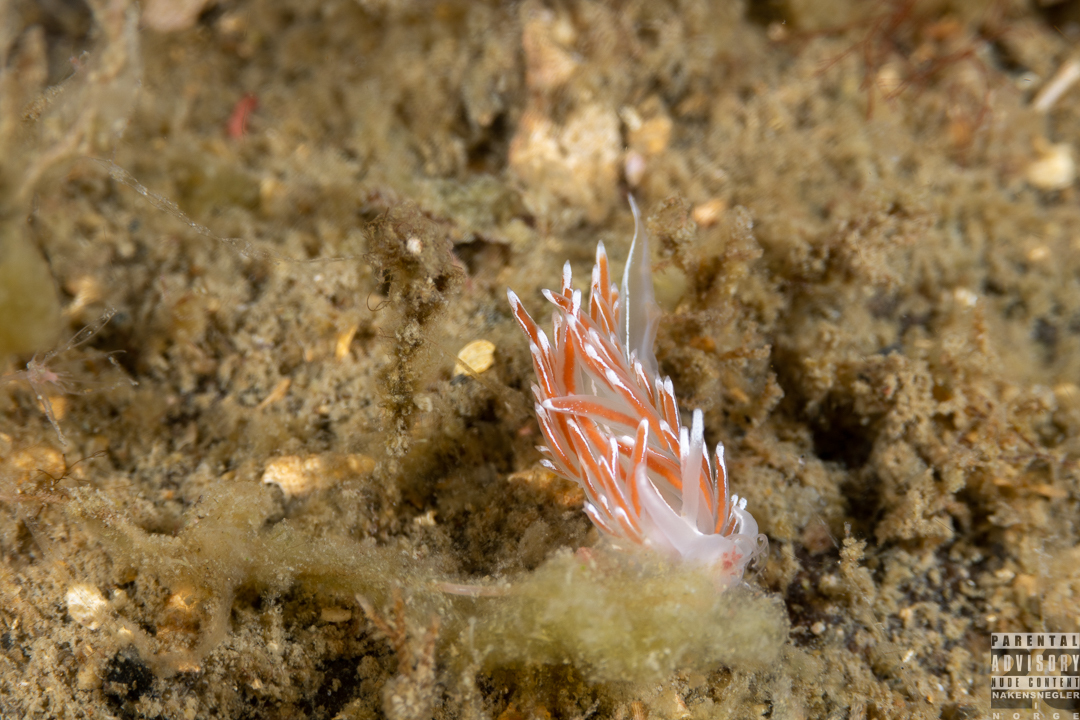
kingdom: Animalia
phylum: Mollusca
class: Gastropoda
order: Nudibranchia
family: Coryphellidae
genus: Coryphella
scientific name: Coryphella lineata
